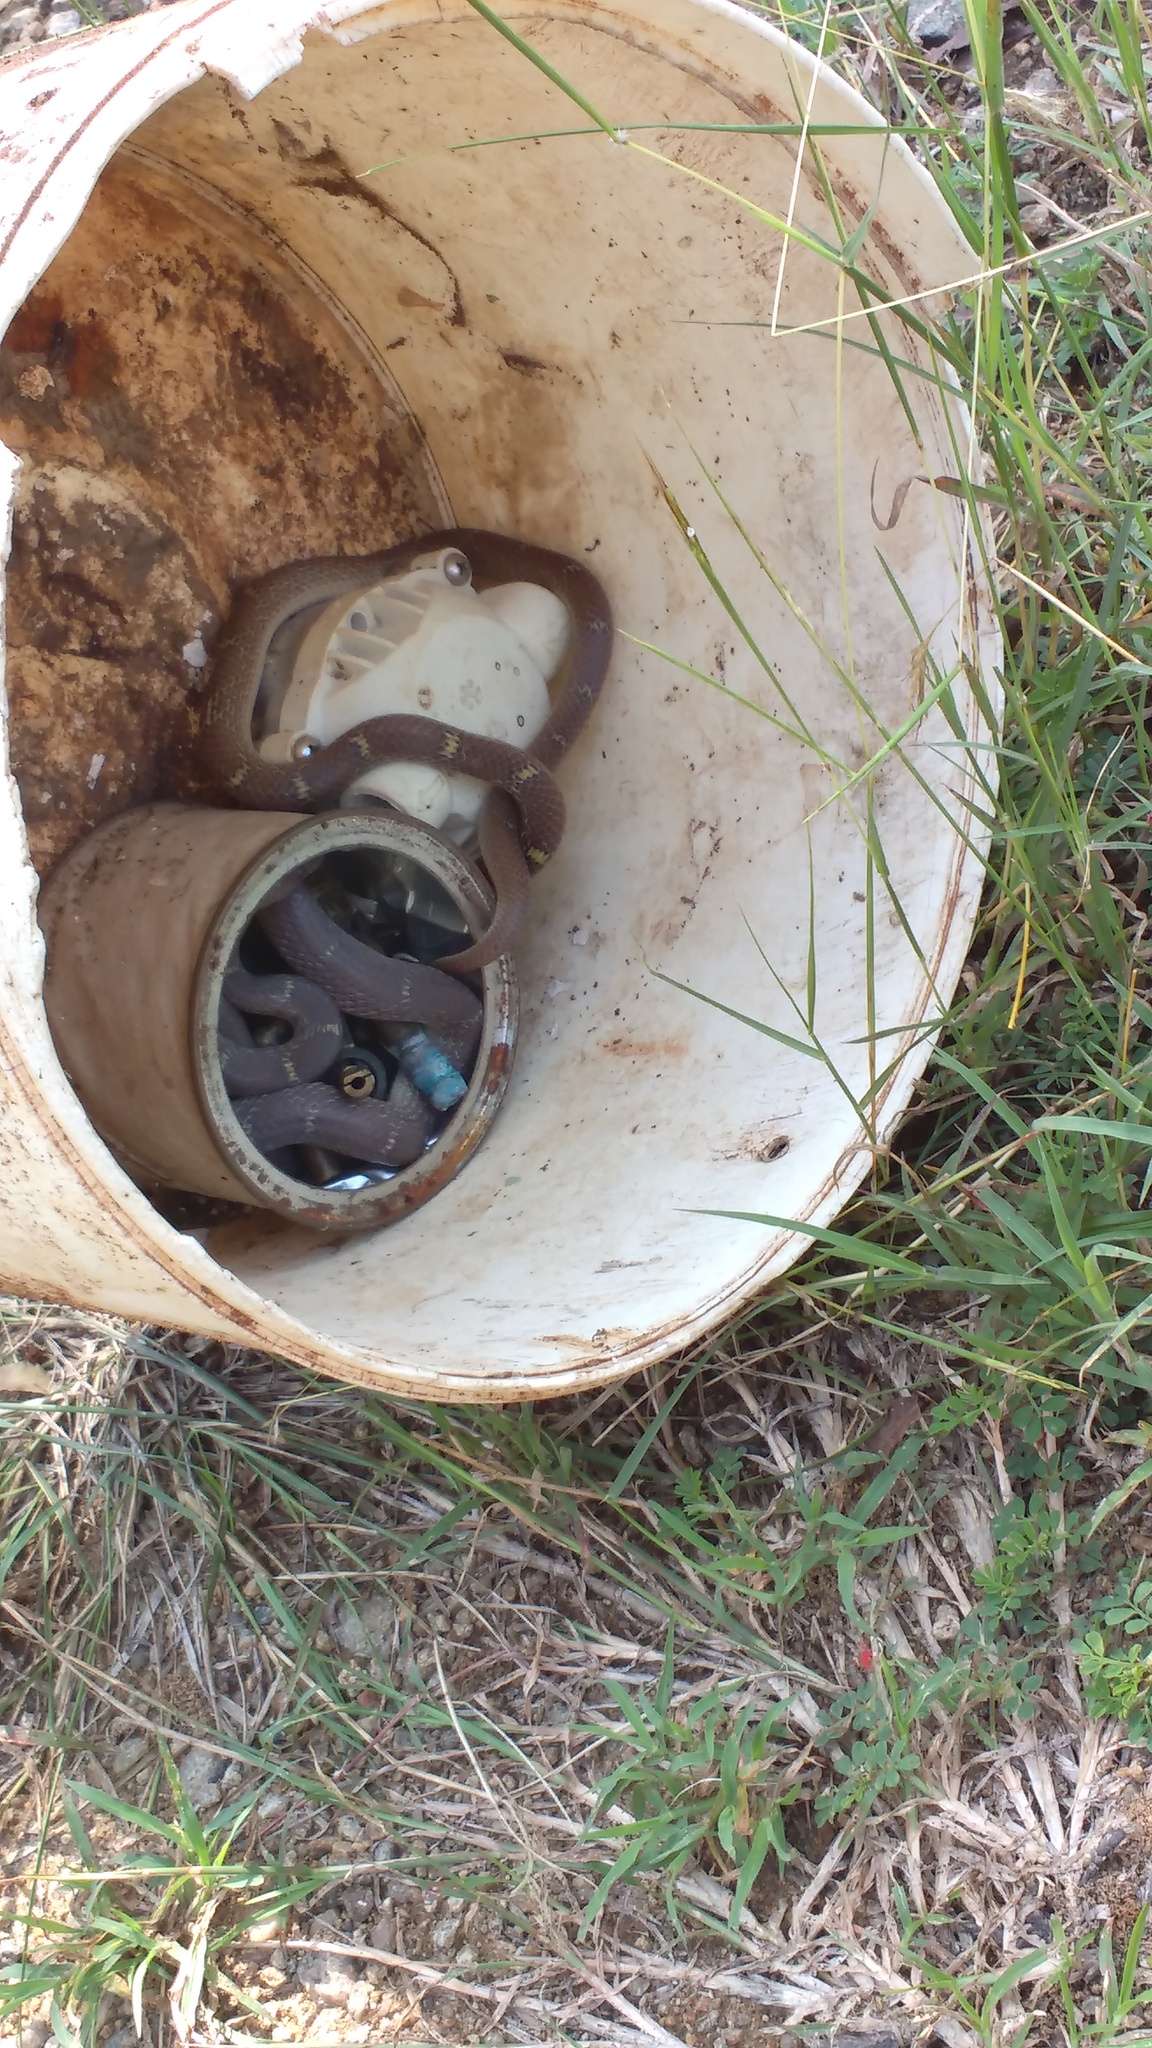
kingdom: Animalia
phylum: Chordata
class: Squamata
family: Colubridae
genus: Lycodon
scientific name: Lycodon fasciolatus
